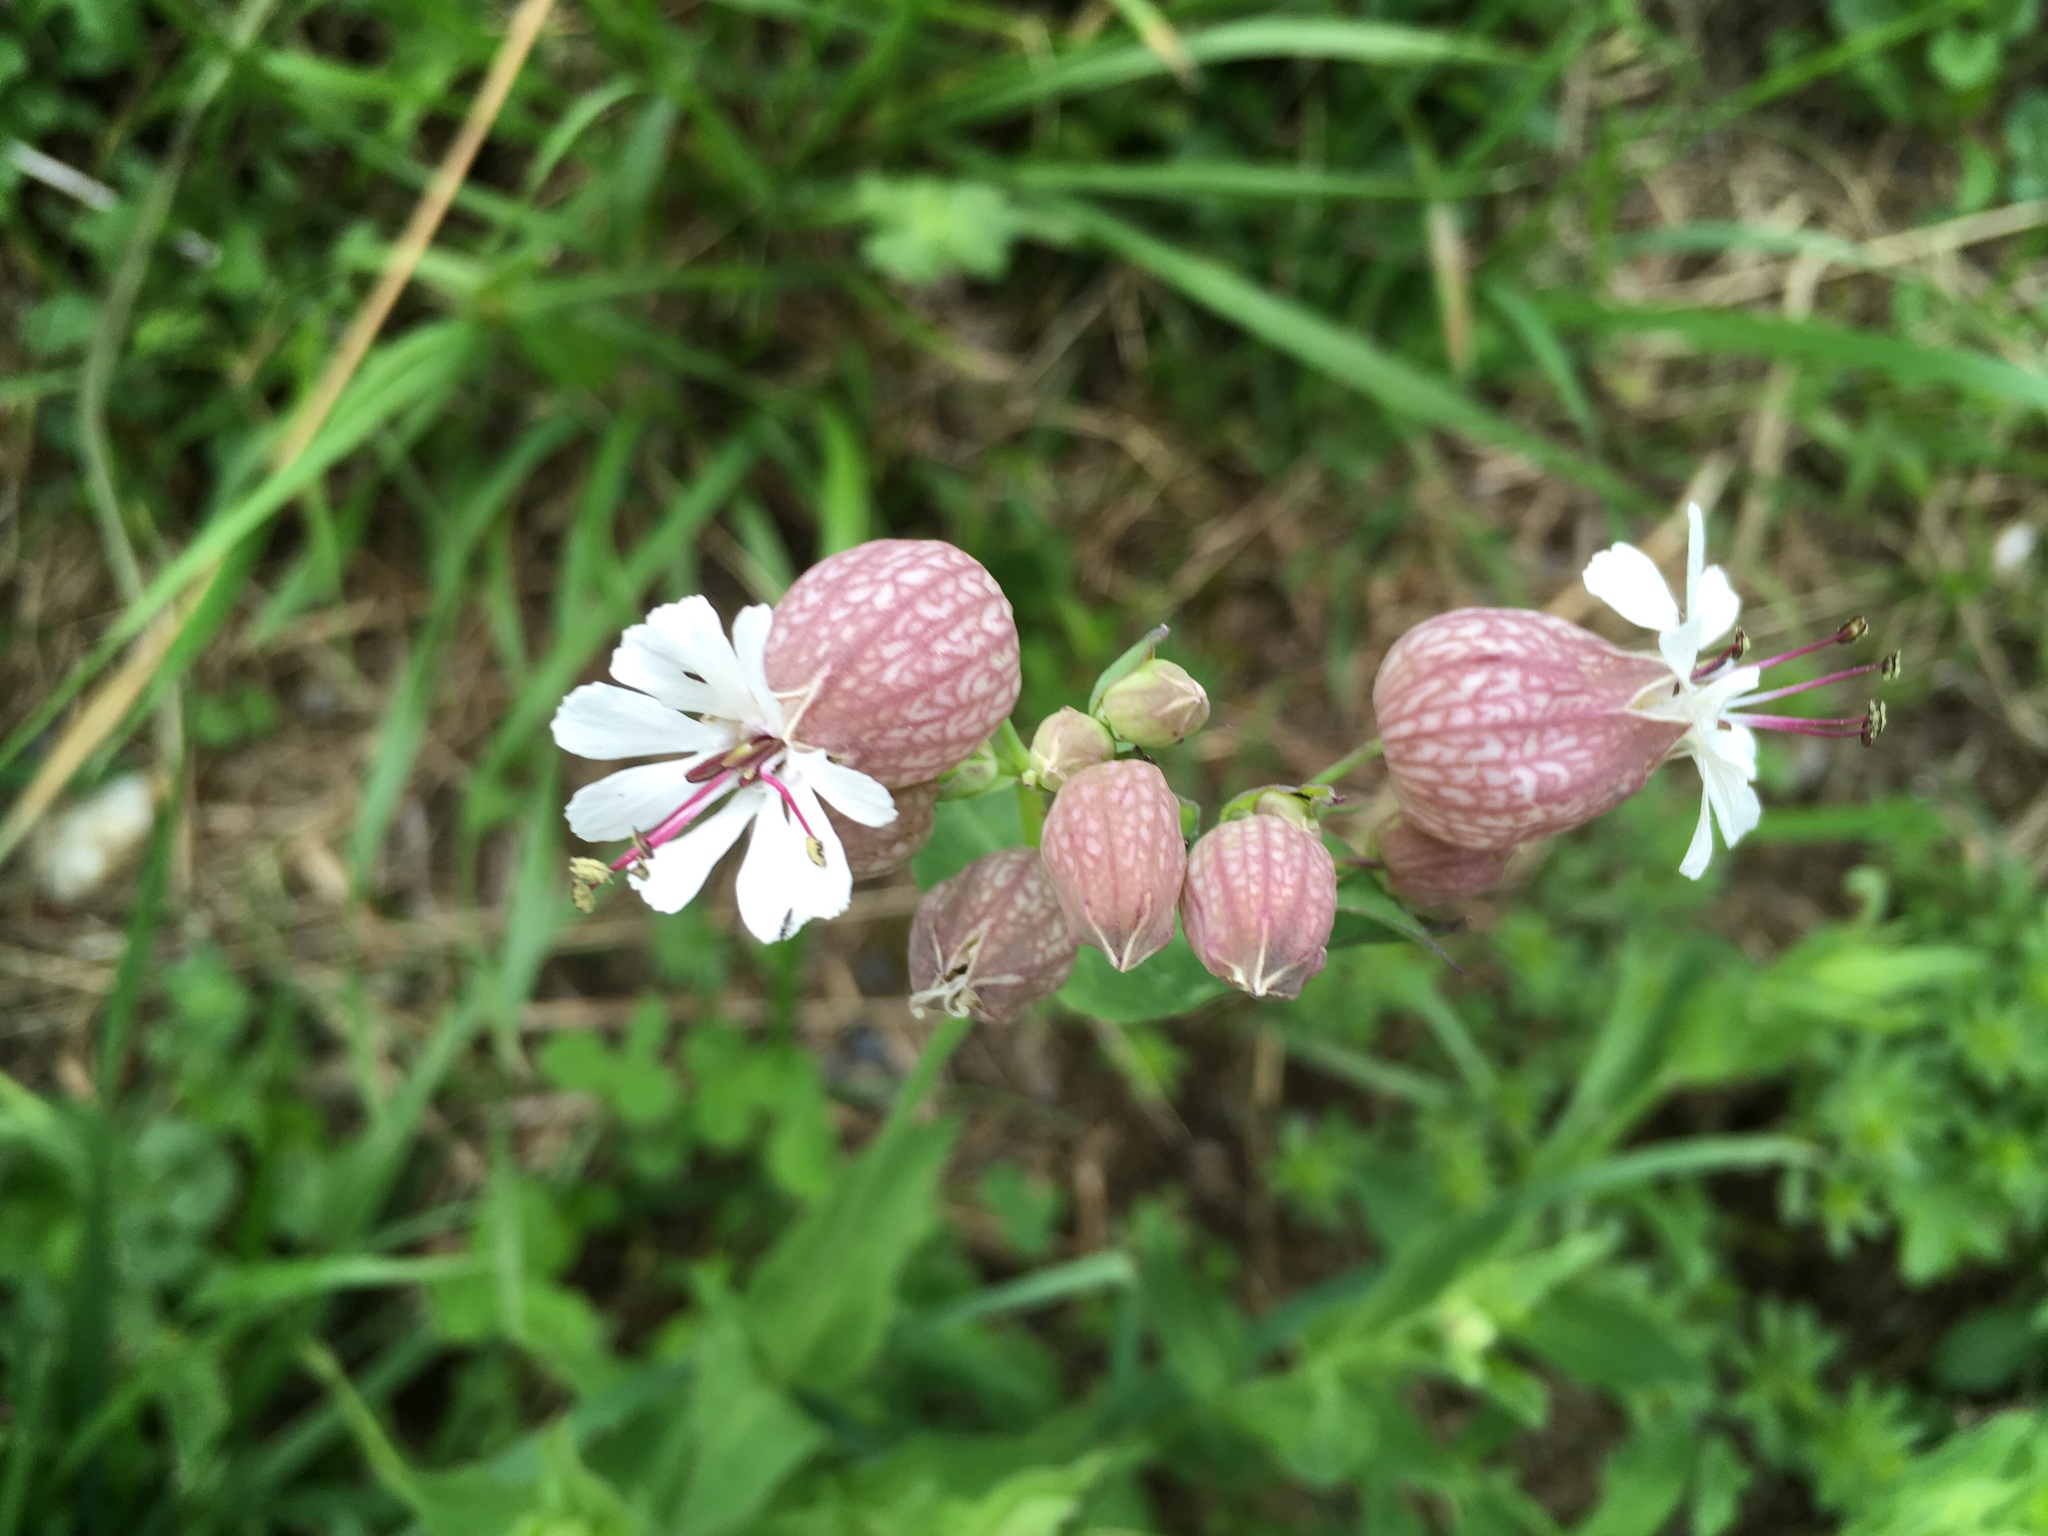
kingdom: Plantae
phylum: Tracheophyta
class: Magnoliopsida
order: Caryophyllales
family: Caryophyllaceae
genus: Silene
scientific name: Silene vulgaris
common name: Bladder campion
